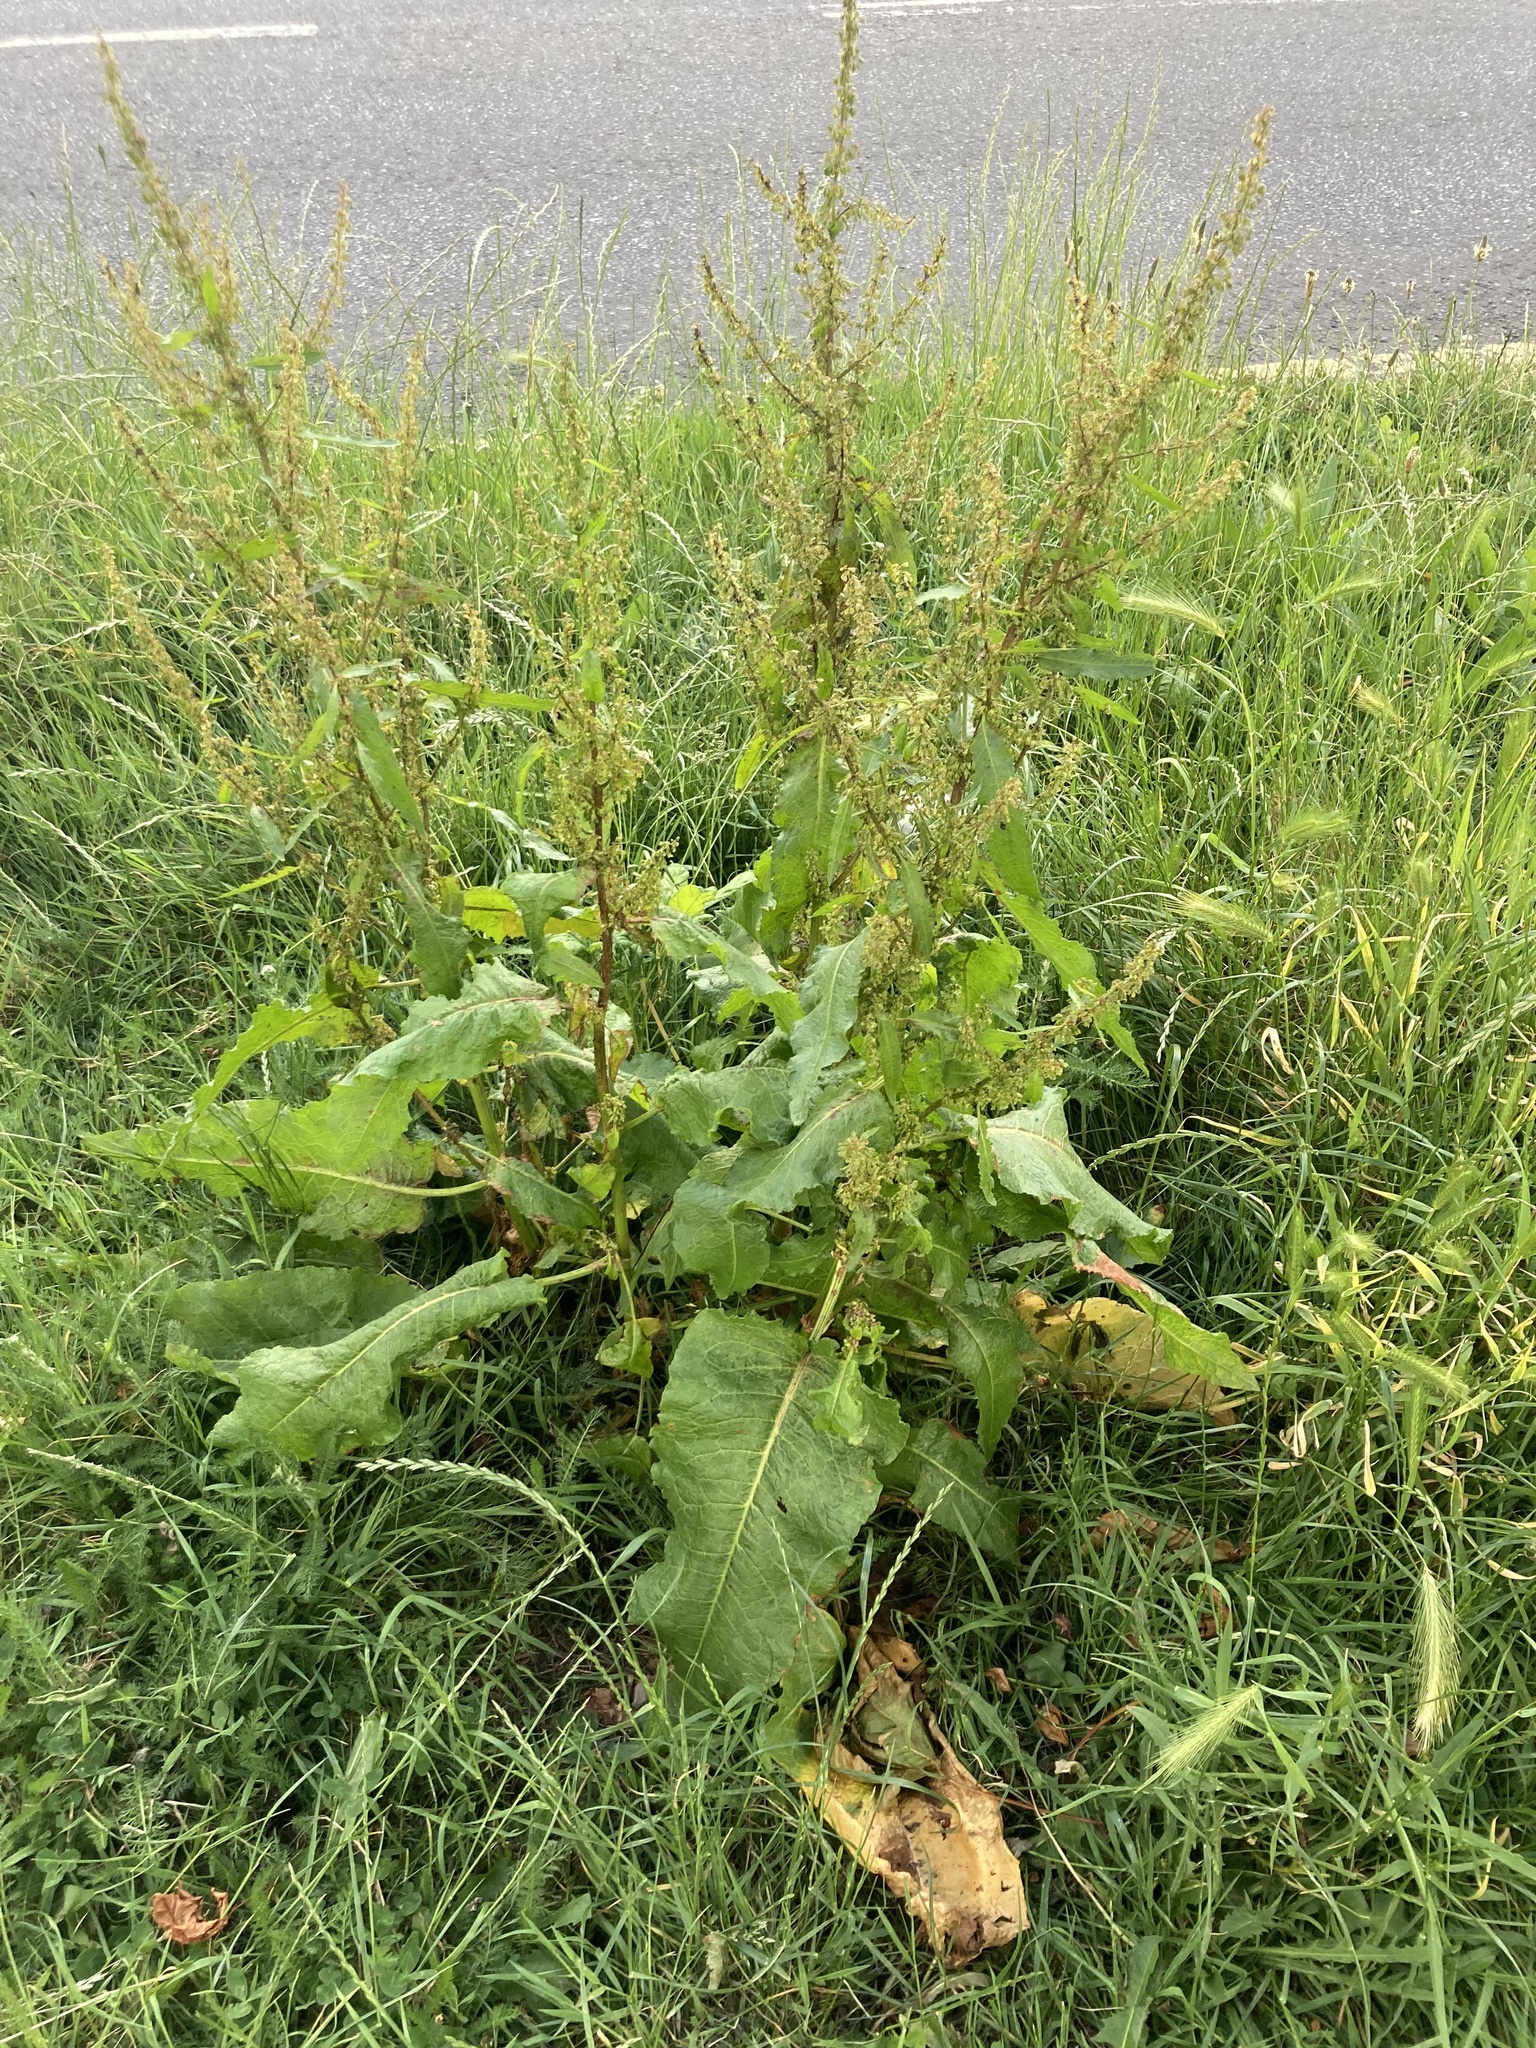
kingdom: Plantae
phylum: Tracheophyta
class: Magnoliopsida
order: Caryophyllales
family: Polygonaceae
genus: Rumex
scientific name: Rumex obtusifolius
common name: Bitter dock
